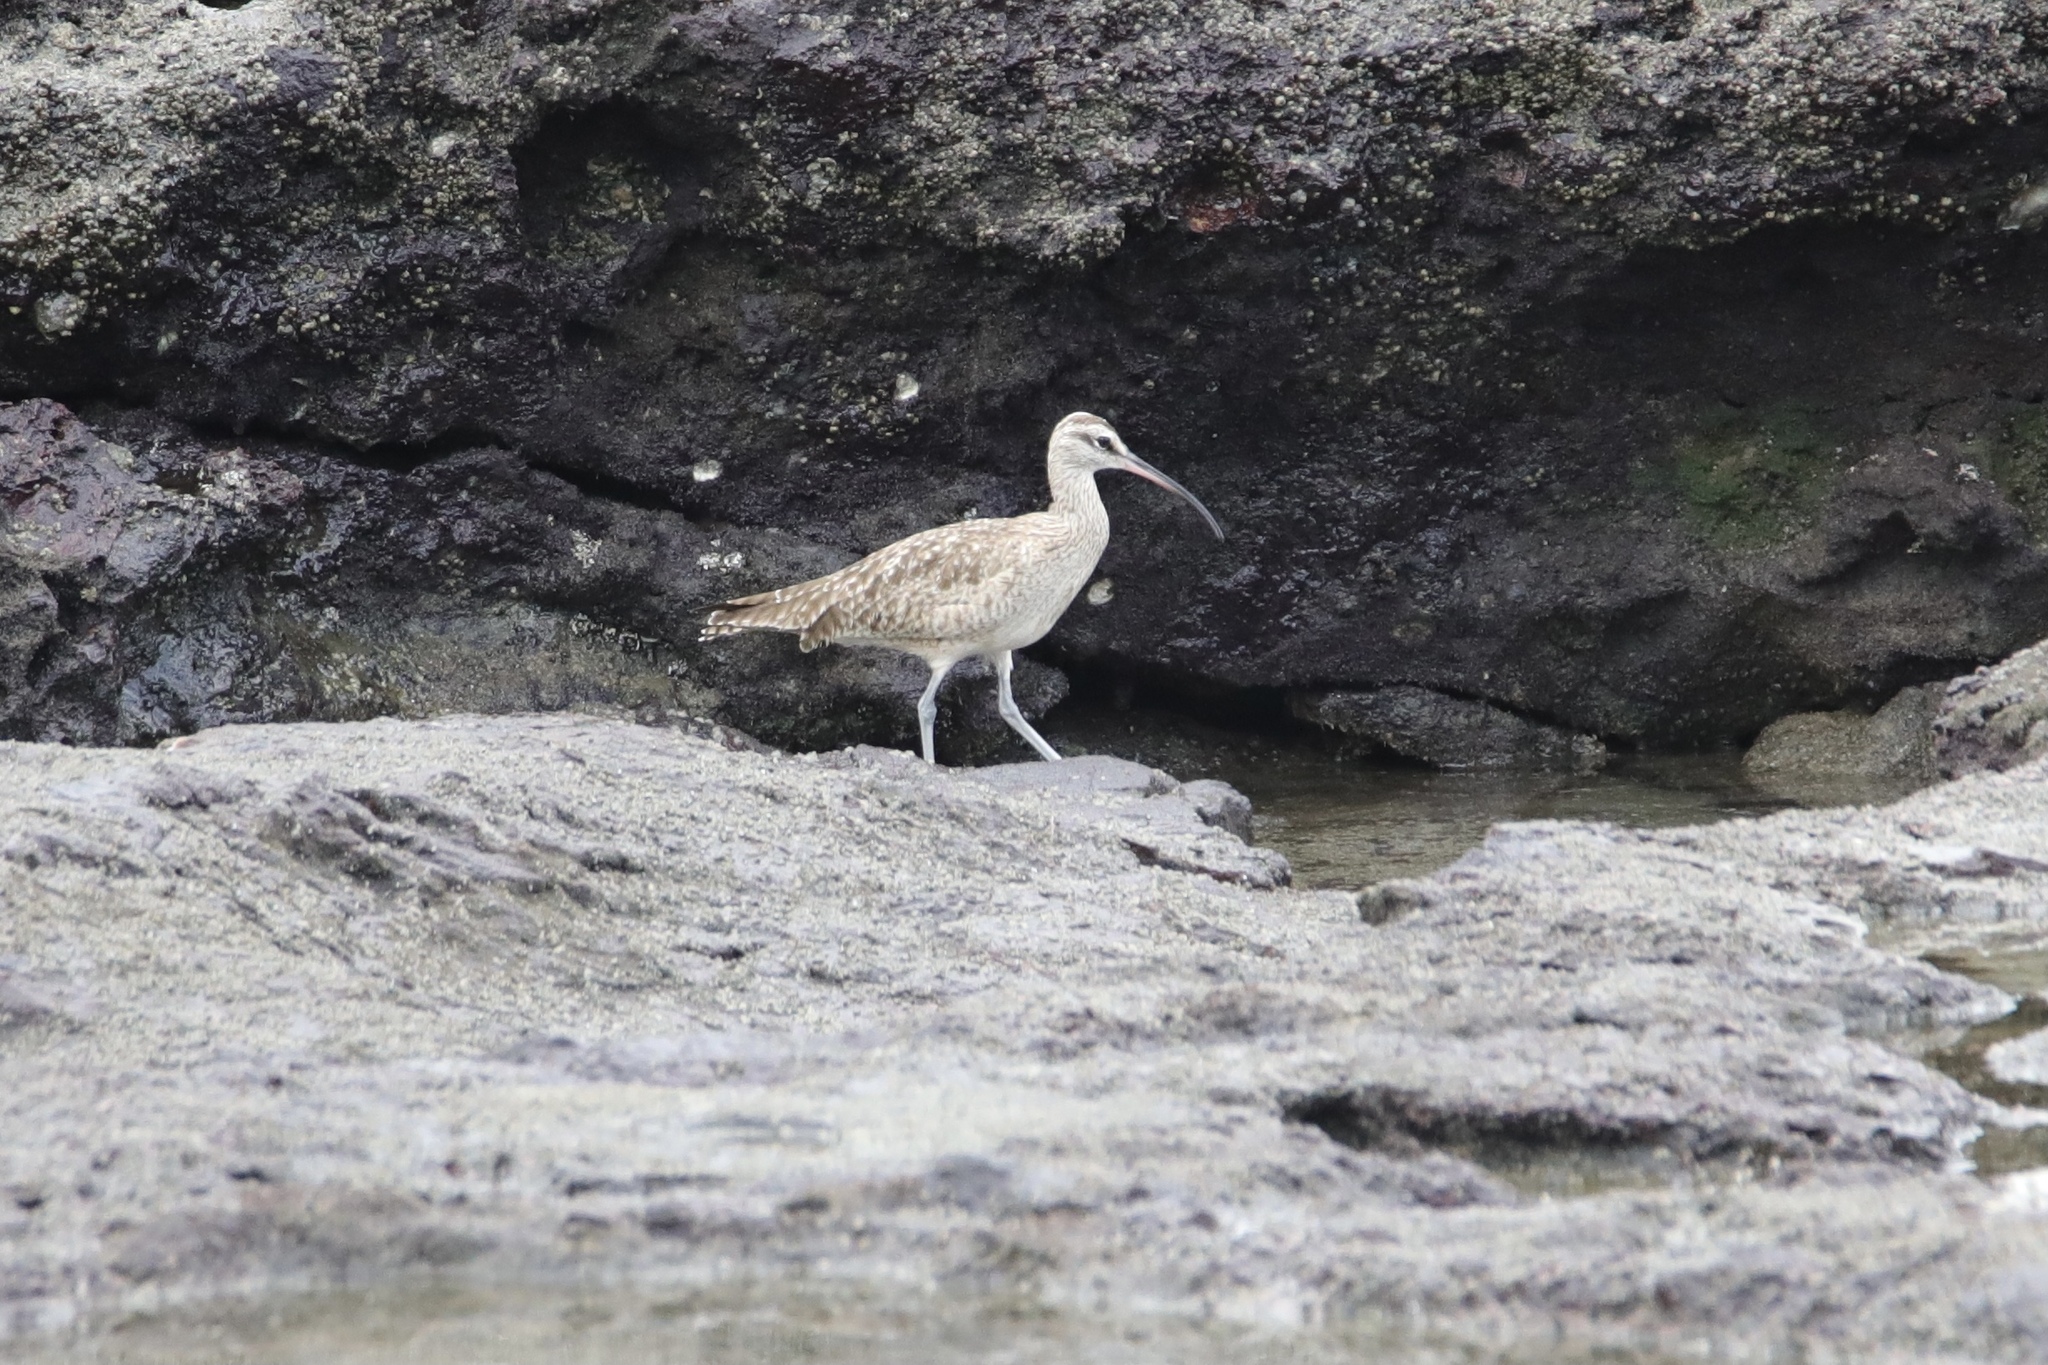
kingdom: Animalia
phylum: Chordata
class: Aves
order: Charadriiformes
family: Scolopacidae
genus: Numenius
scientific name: Numenius phaeopus
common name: Whimbrel
